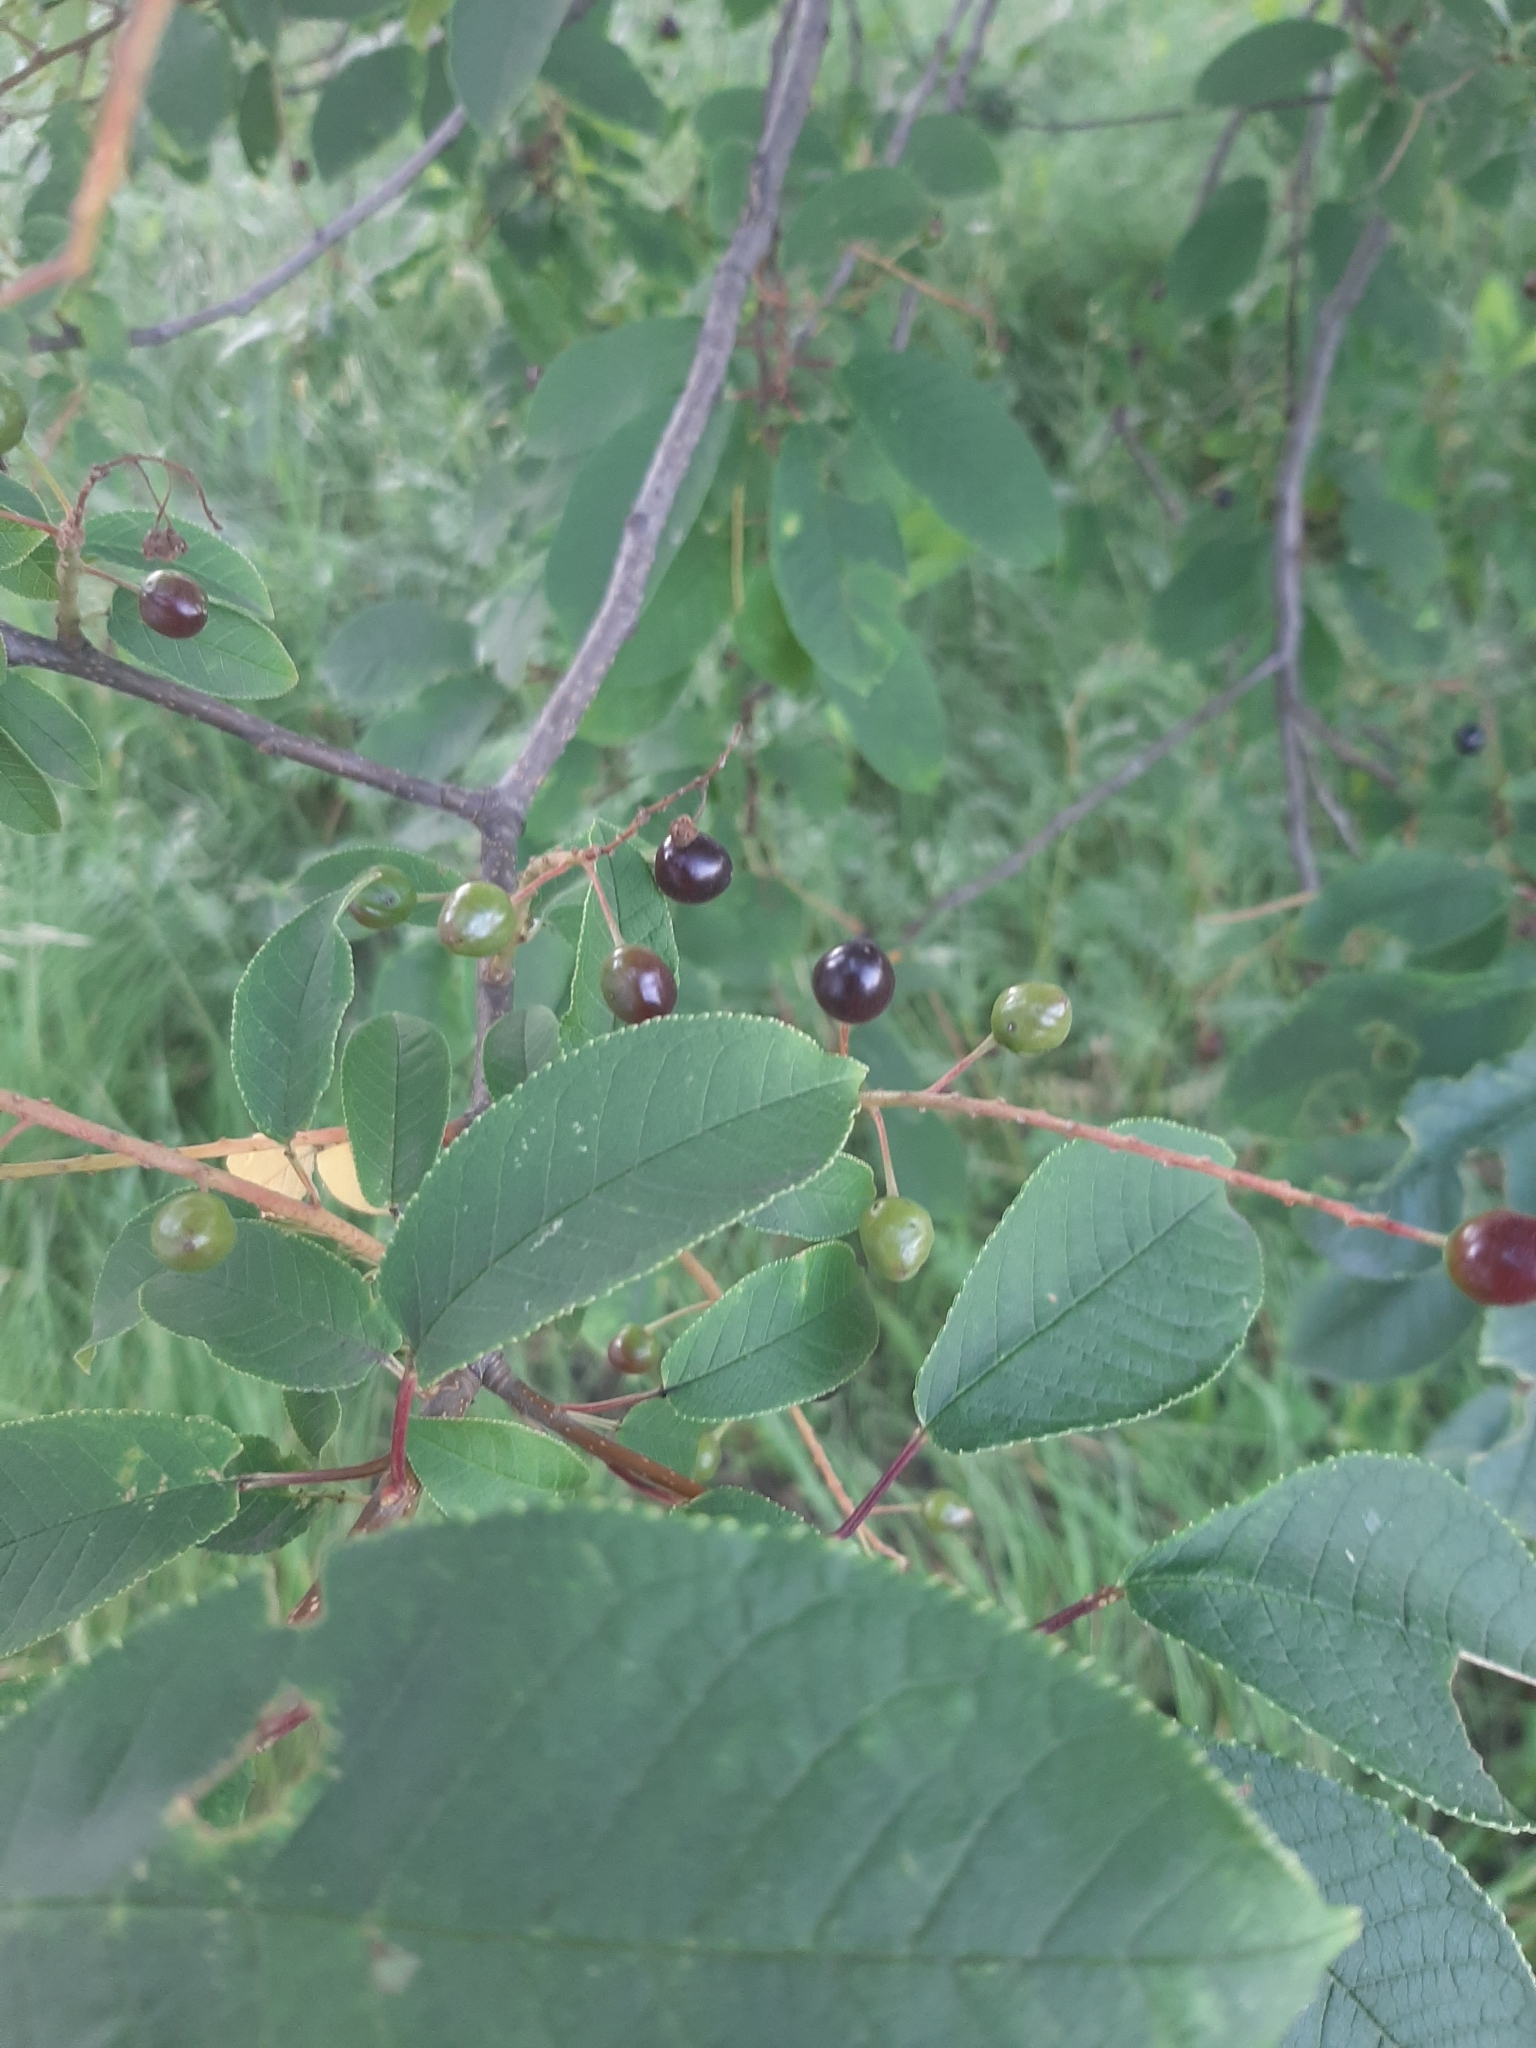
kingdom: Plantae
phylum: Tracheophyta
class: Magnoliopsida
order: Rosales
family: Rosaceae
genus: Prunus
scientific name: Prunus padus
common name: Bird cherry
